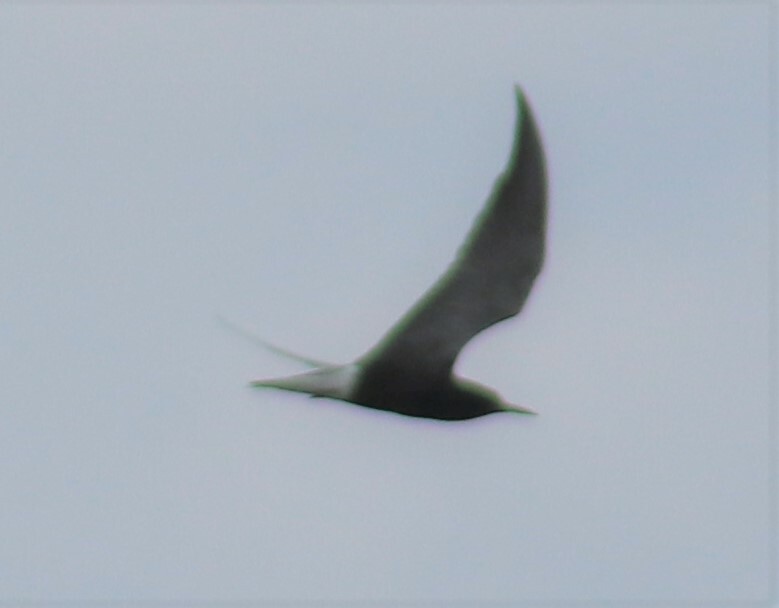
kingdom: Animalia
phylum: Chordata
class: Aves
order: Charadriiformes
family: Laridae
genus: Chlidonias
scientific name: Chlidonias niger
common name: Black tern
